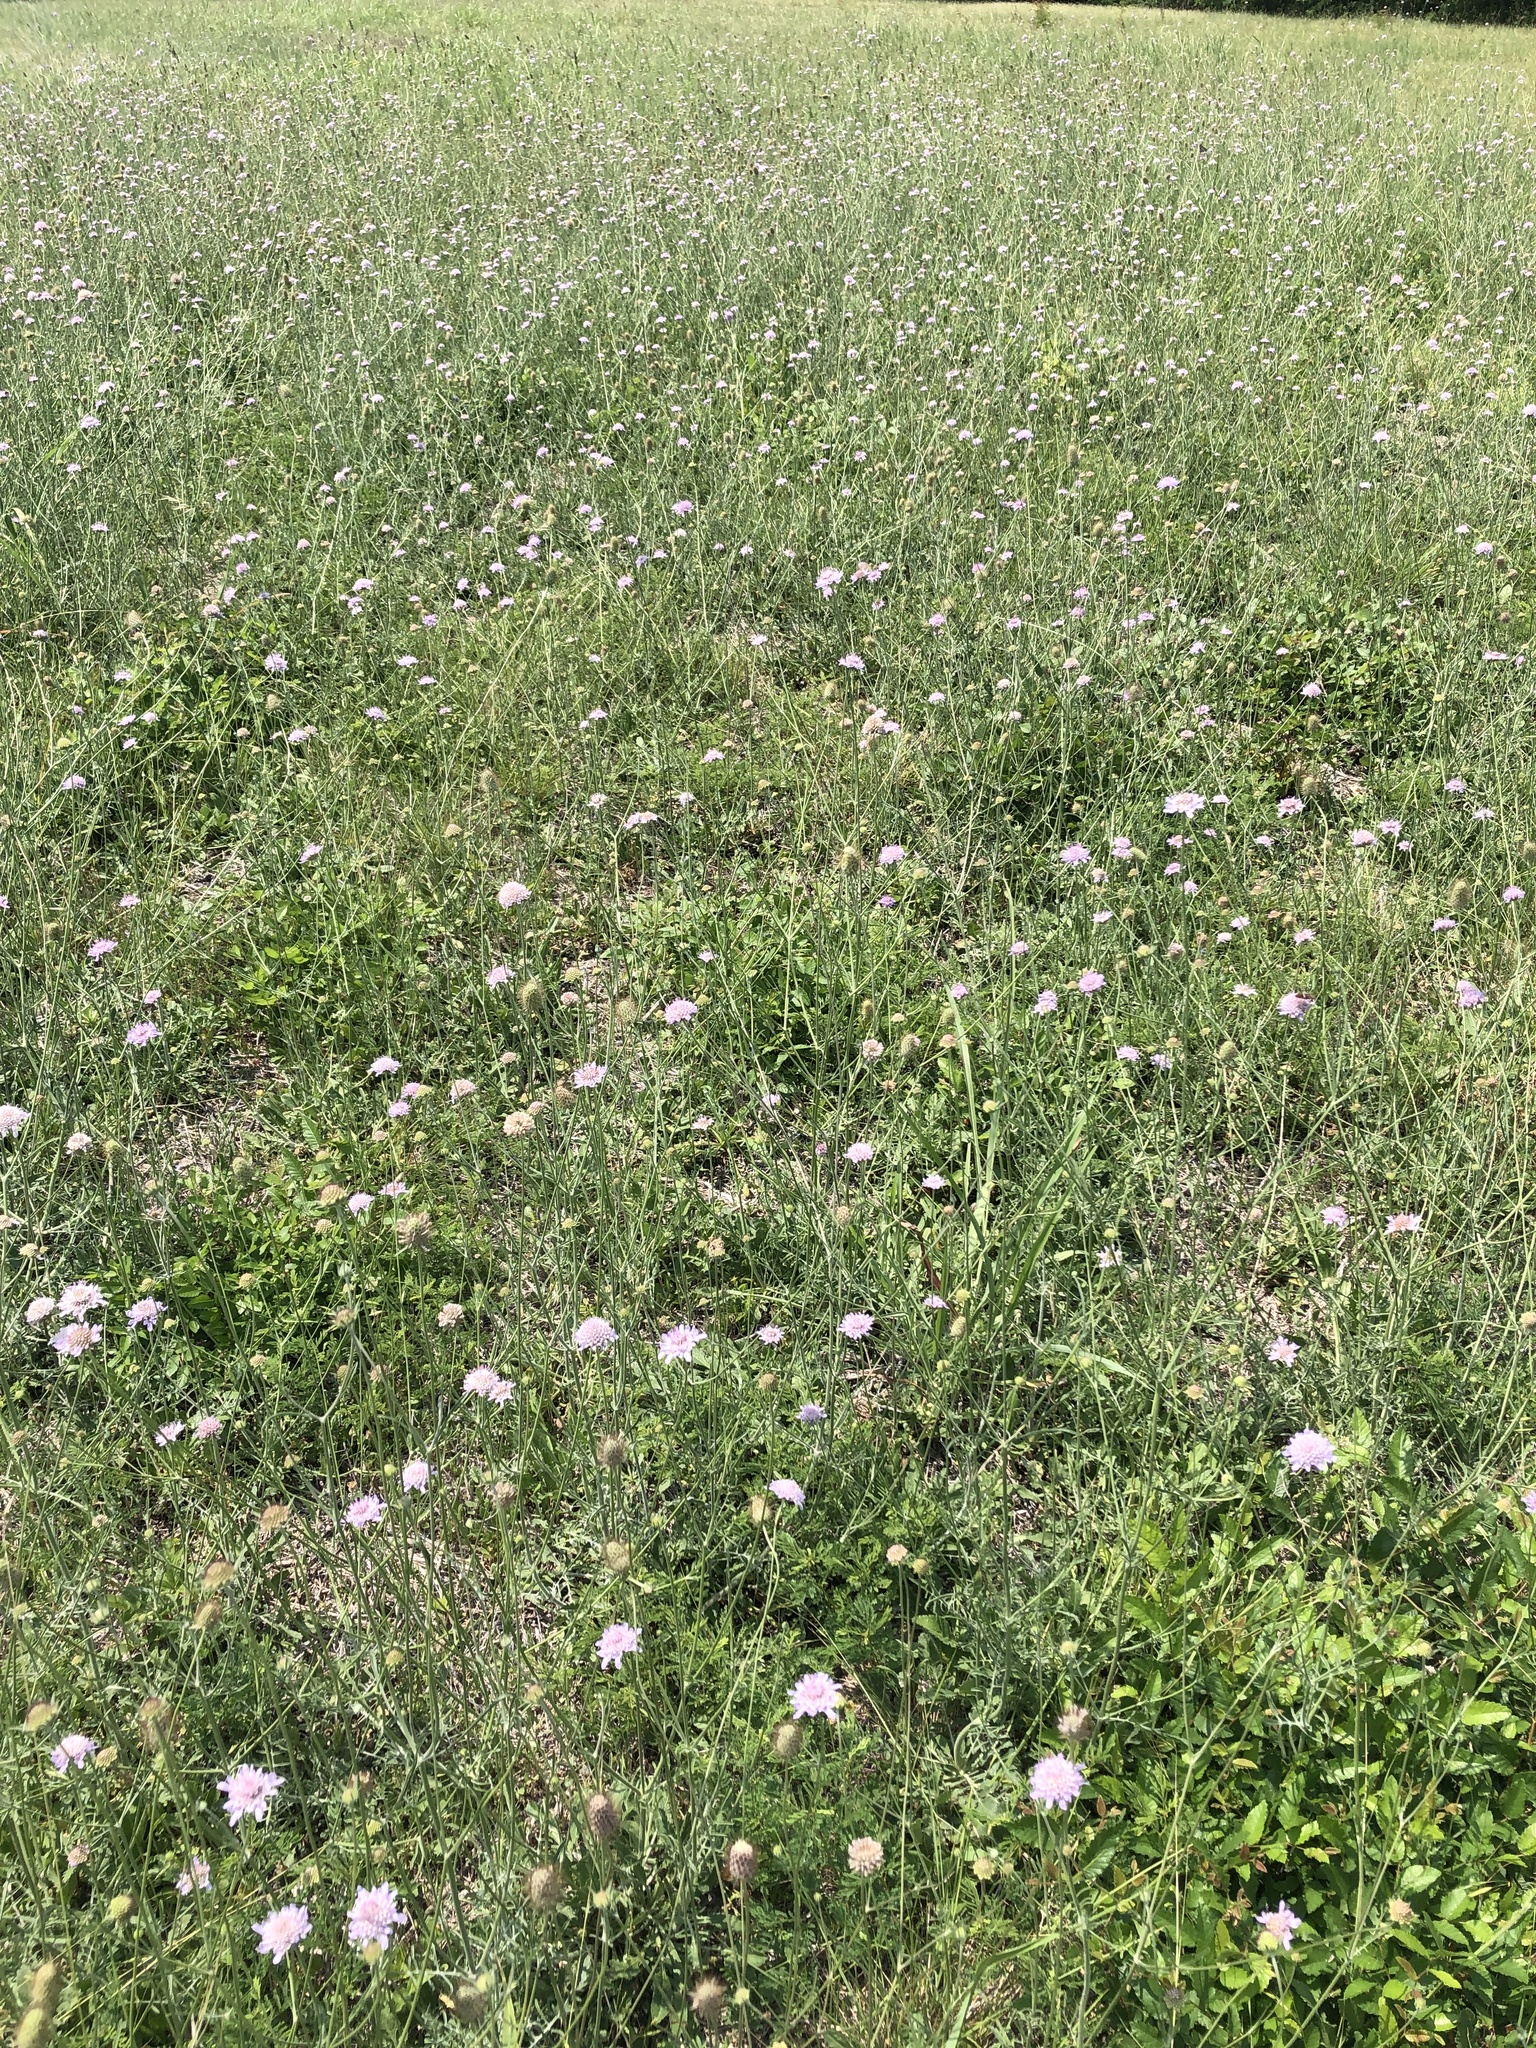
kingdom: Plantae
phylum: Tracheophyta
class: Magnoliopsida
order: Dipsacales
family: Caprifoliaceae
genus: Sixalix
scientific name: Sixalix atropurpurea
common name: Sweet scabious
